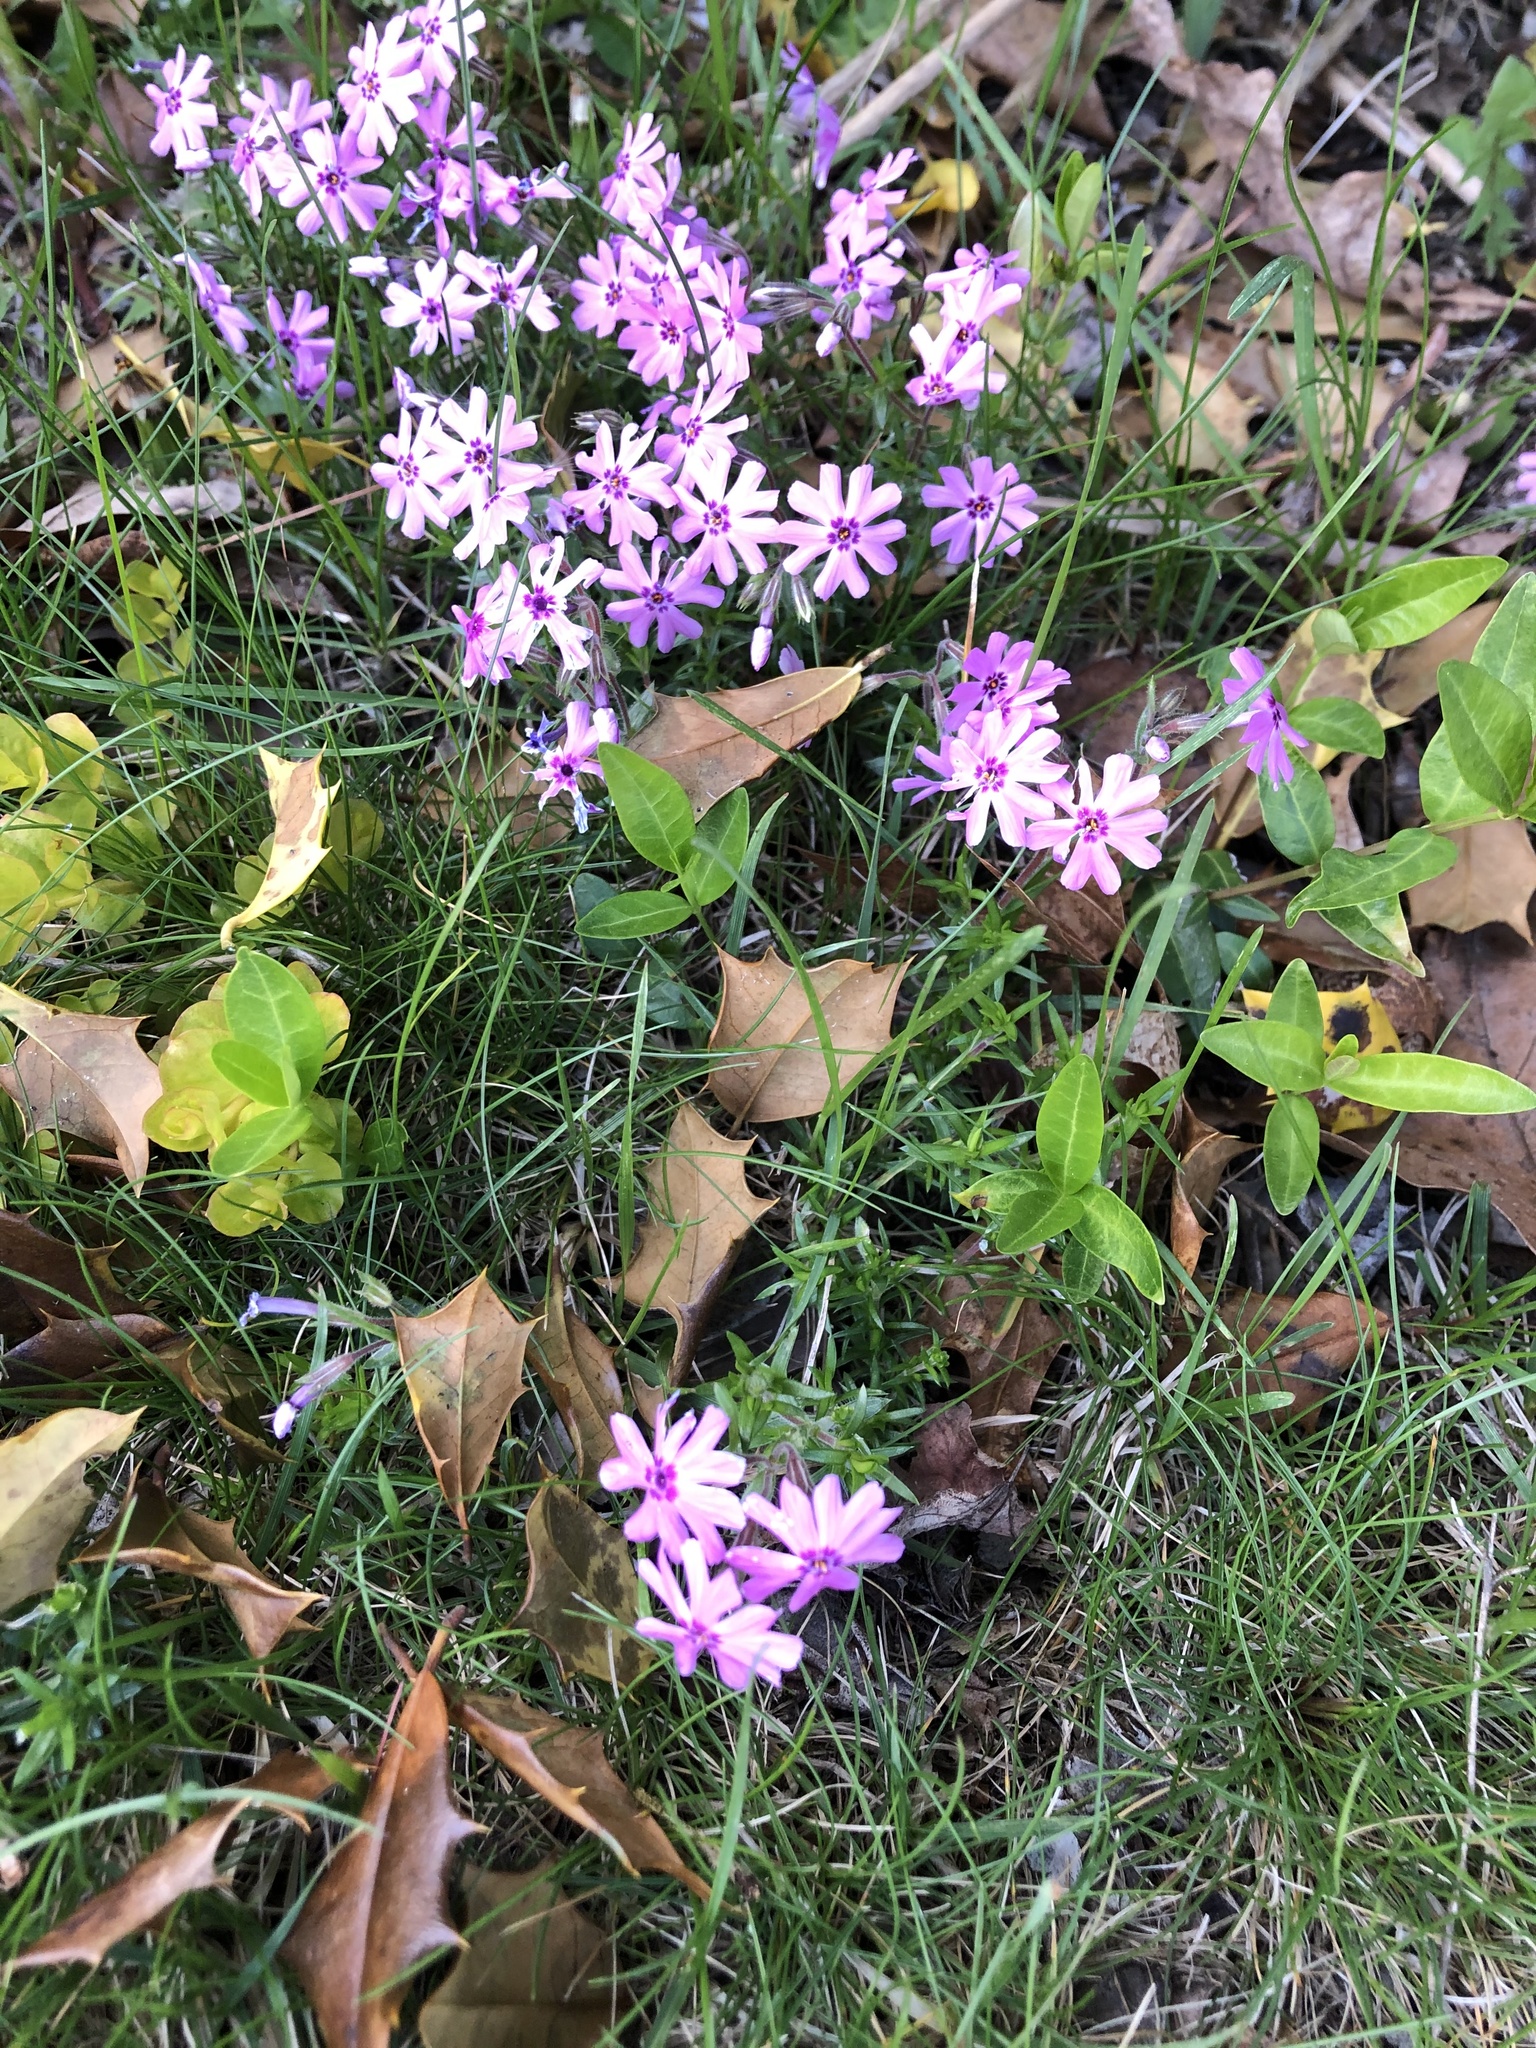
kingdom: Plantae
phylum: Tracheophyta
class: Magnoliopsida
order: Ericales
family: Polemoniaceae
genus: Phlox
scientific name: Phlox subulata
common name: Moss phlox
